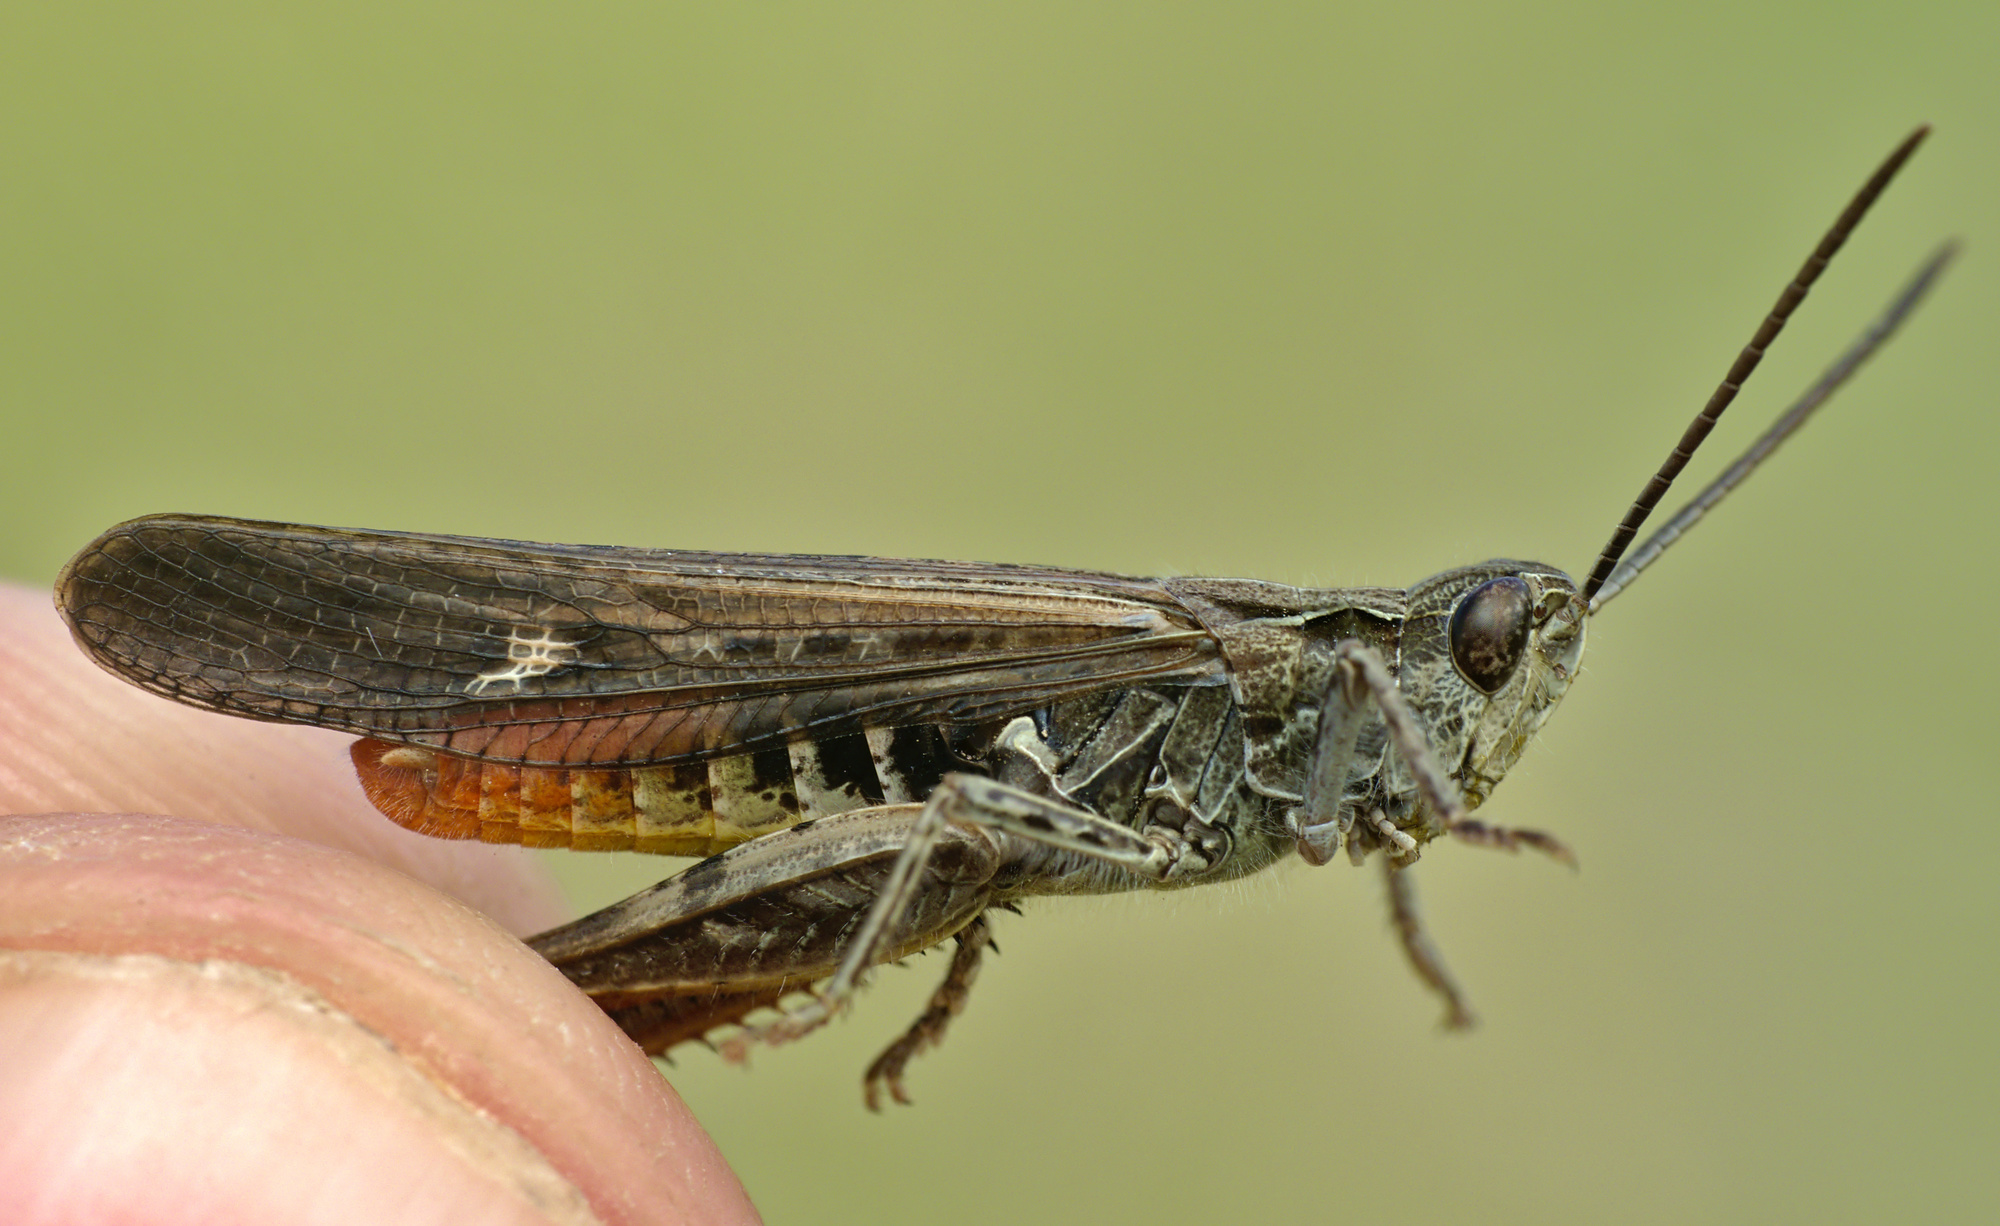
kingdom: Animalia
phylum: Arthropoda
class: Insecta
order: Orthoptera
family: Acrididae
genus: Chorthippus
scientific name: Chorthippus brunneus
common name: Field grasshopper
